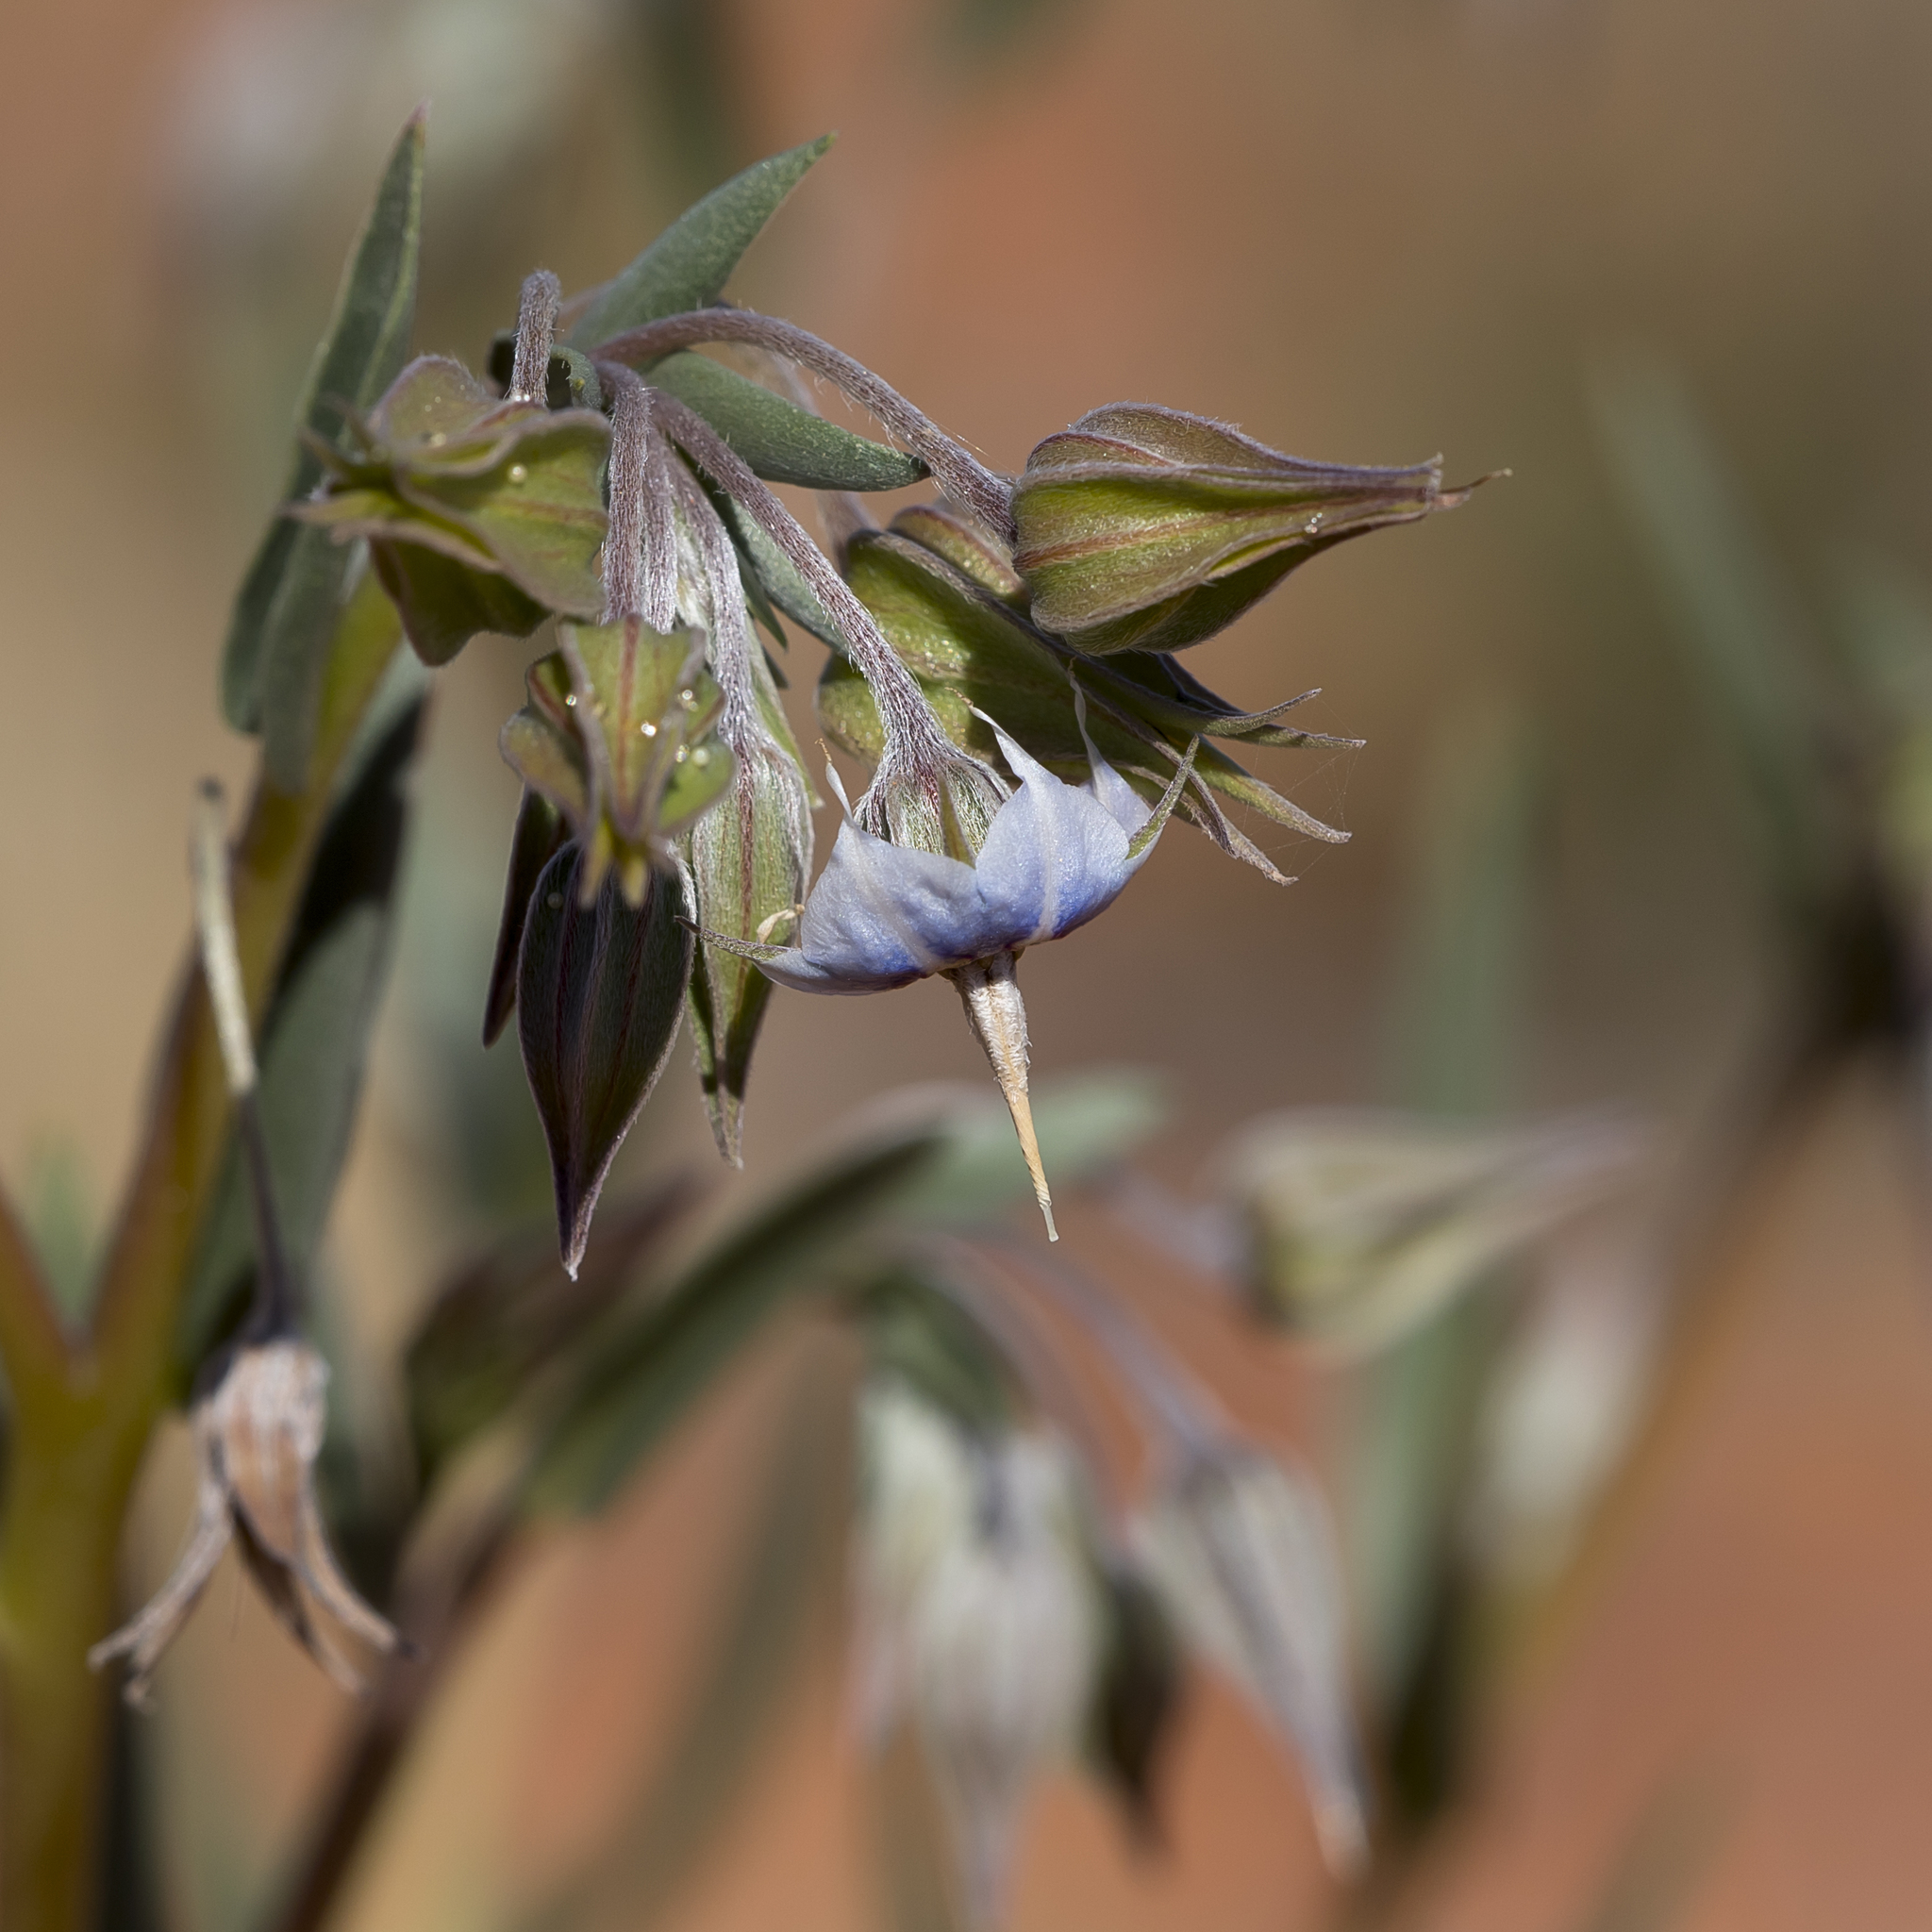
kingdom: Plantae
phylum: Tracheophyta
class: Magnoliopsida
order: Boraginales
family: Boraginaceae
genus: Trichodesma
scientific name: Trichodesma zeylanicum
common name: Camelbush
